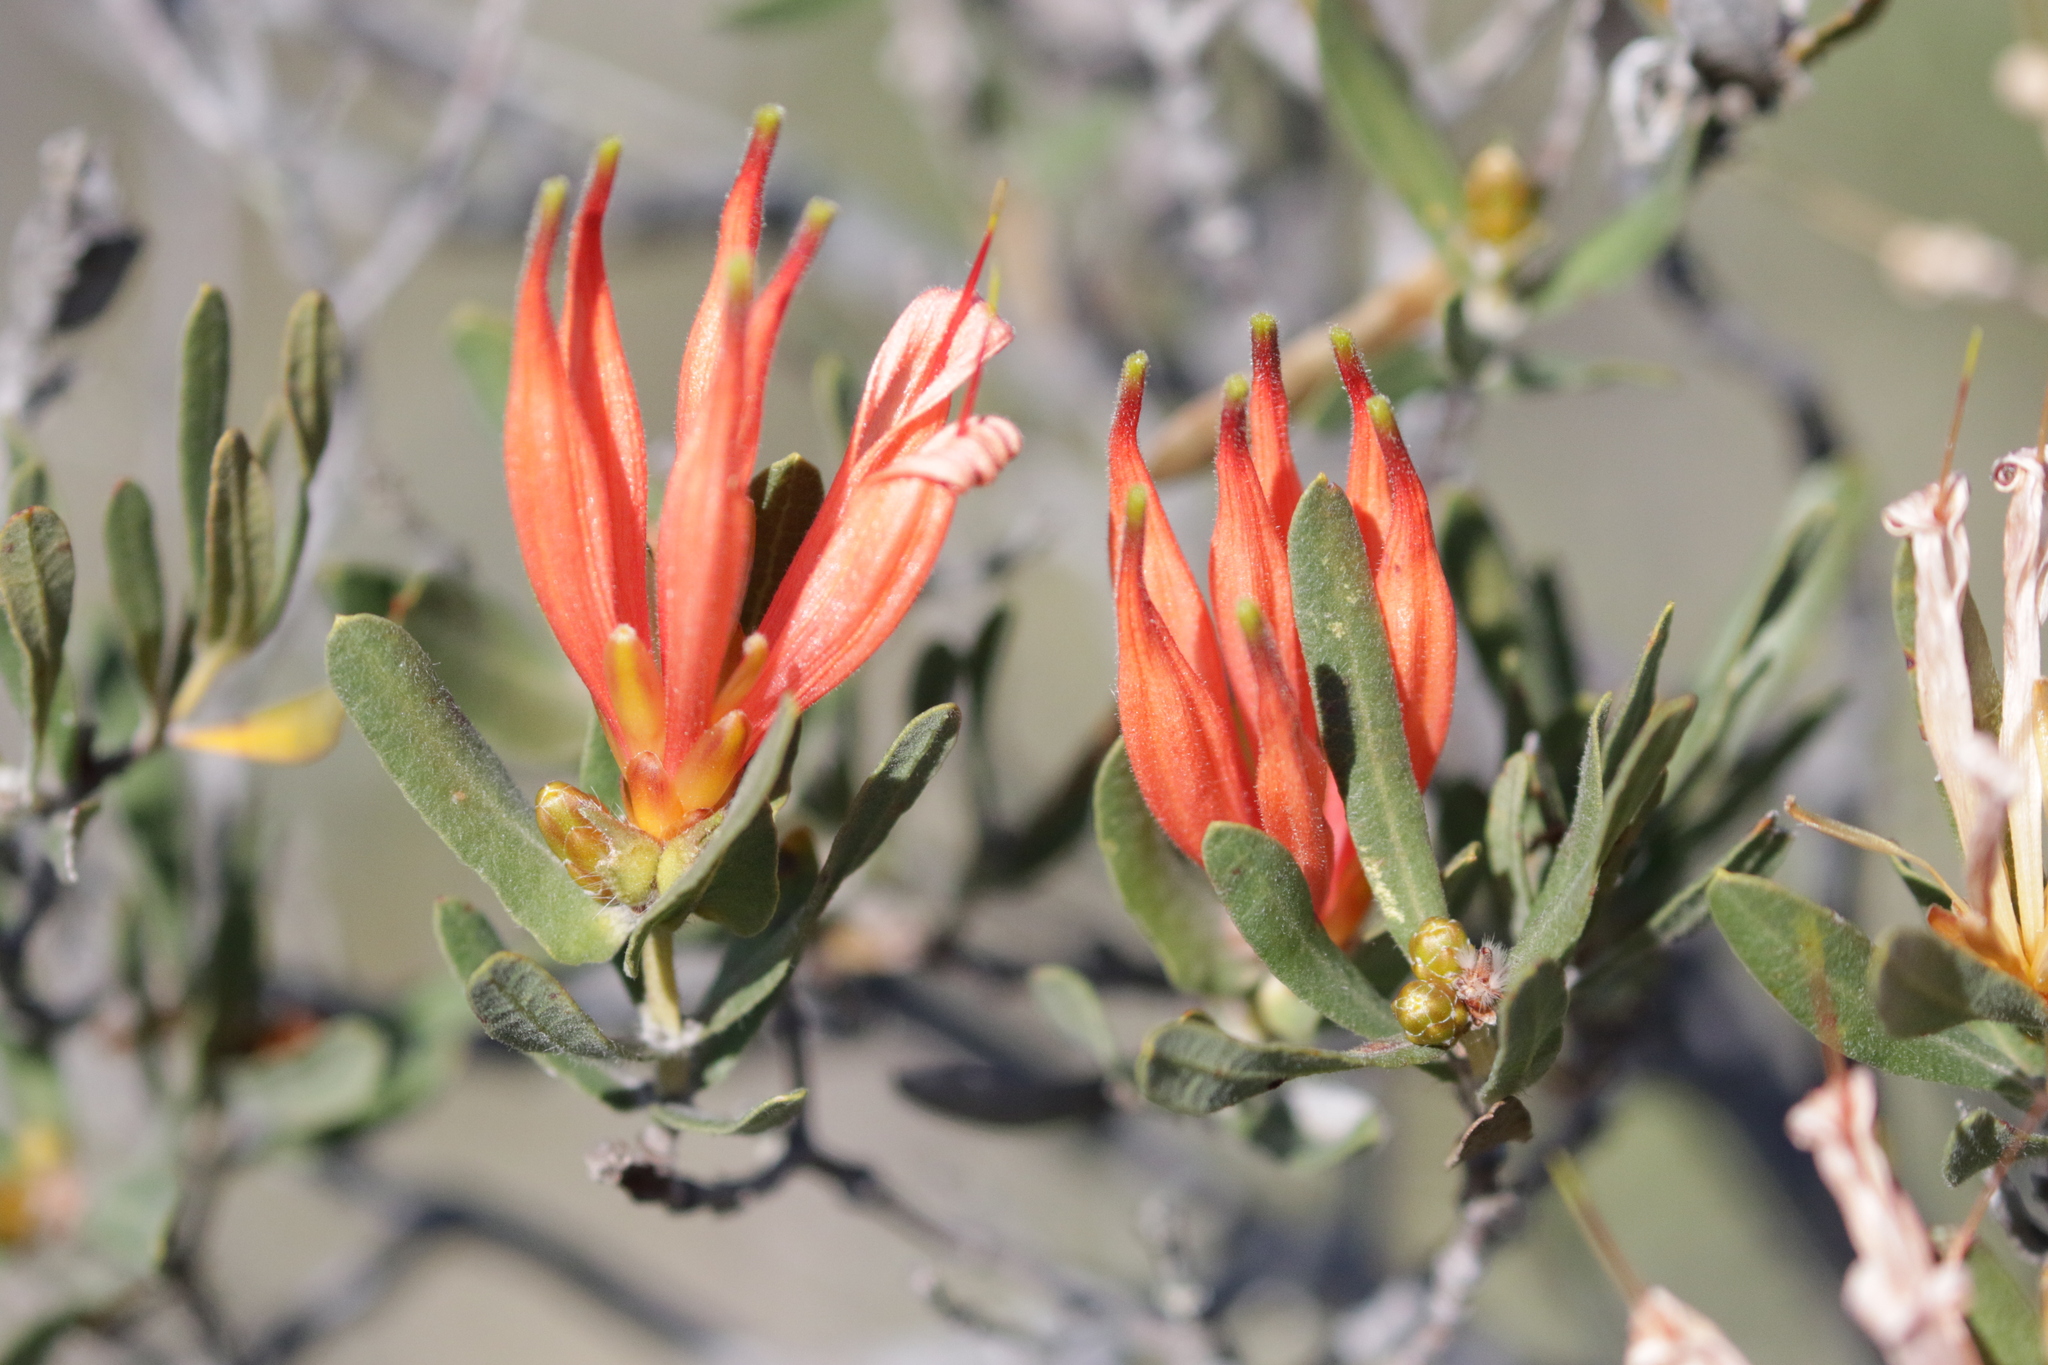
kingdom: Plantae
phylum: Tracheophyta
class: Magnoliopsida
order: Proteales
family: Proteaceae
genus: Lambertia
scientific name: Lambertia multiflora
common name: Many-flowered honeysuckle
